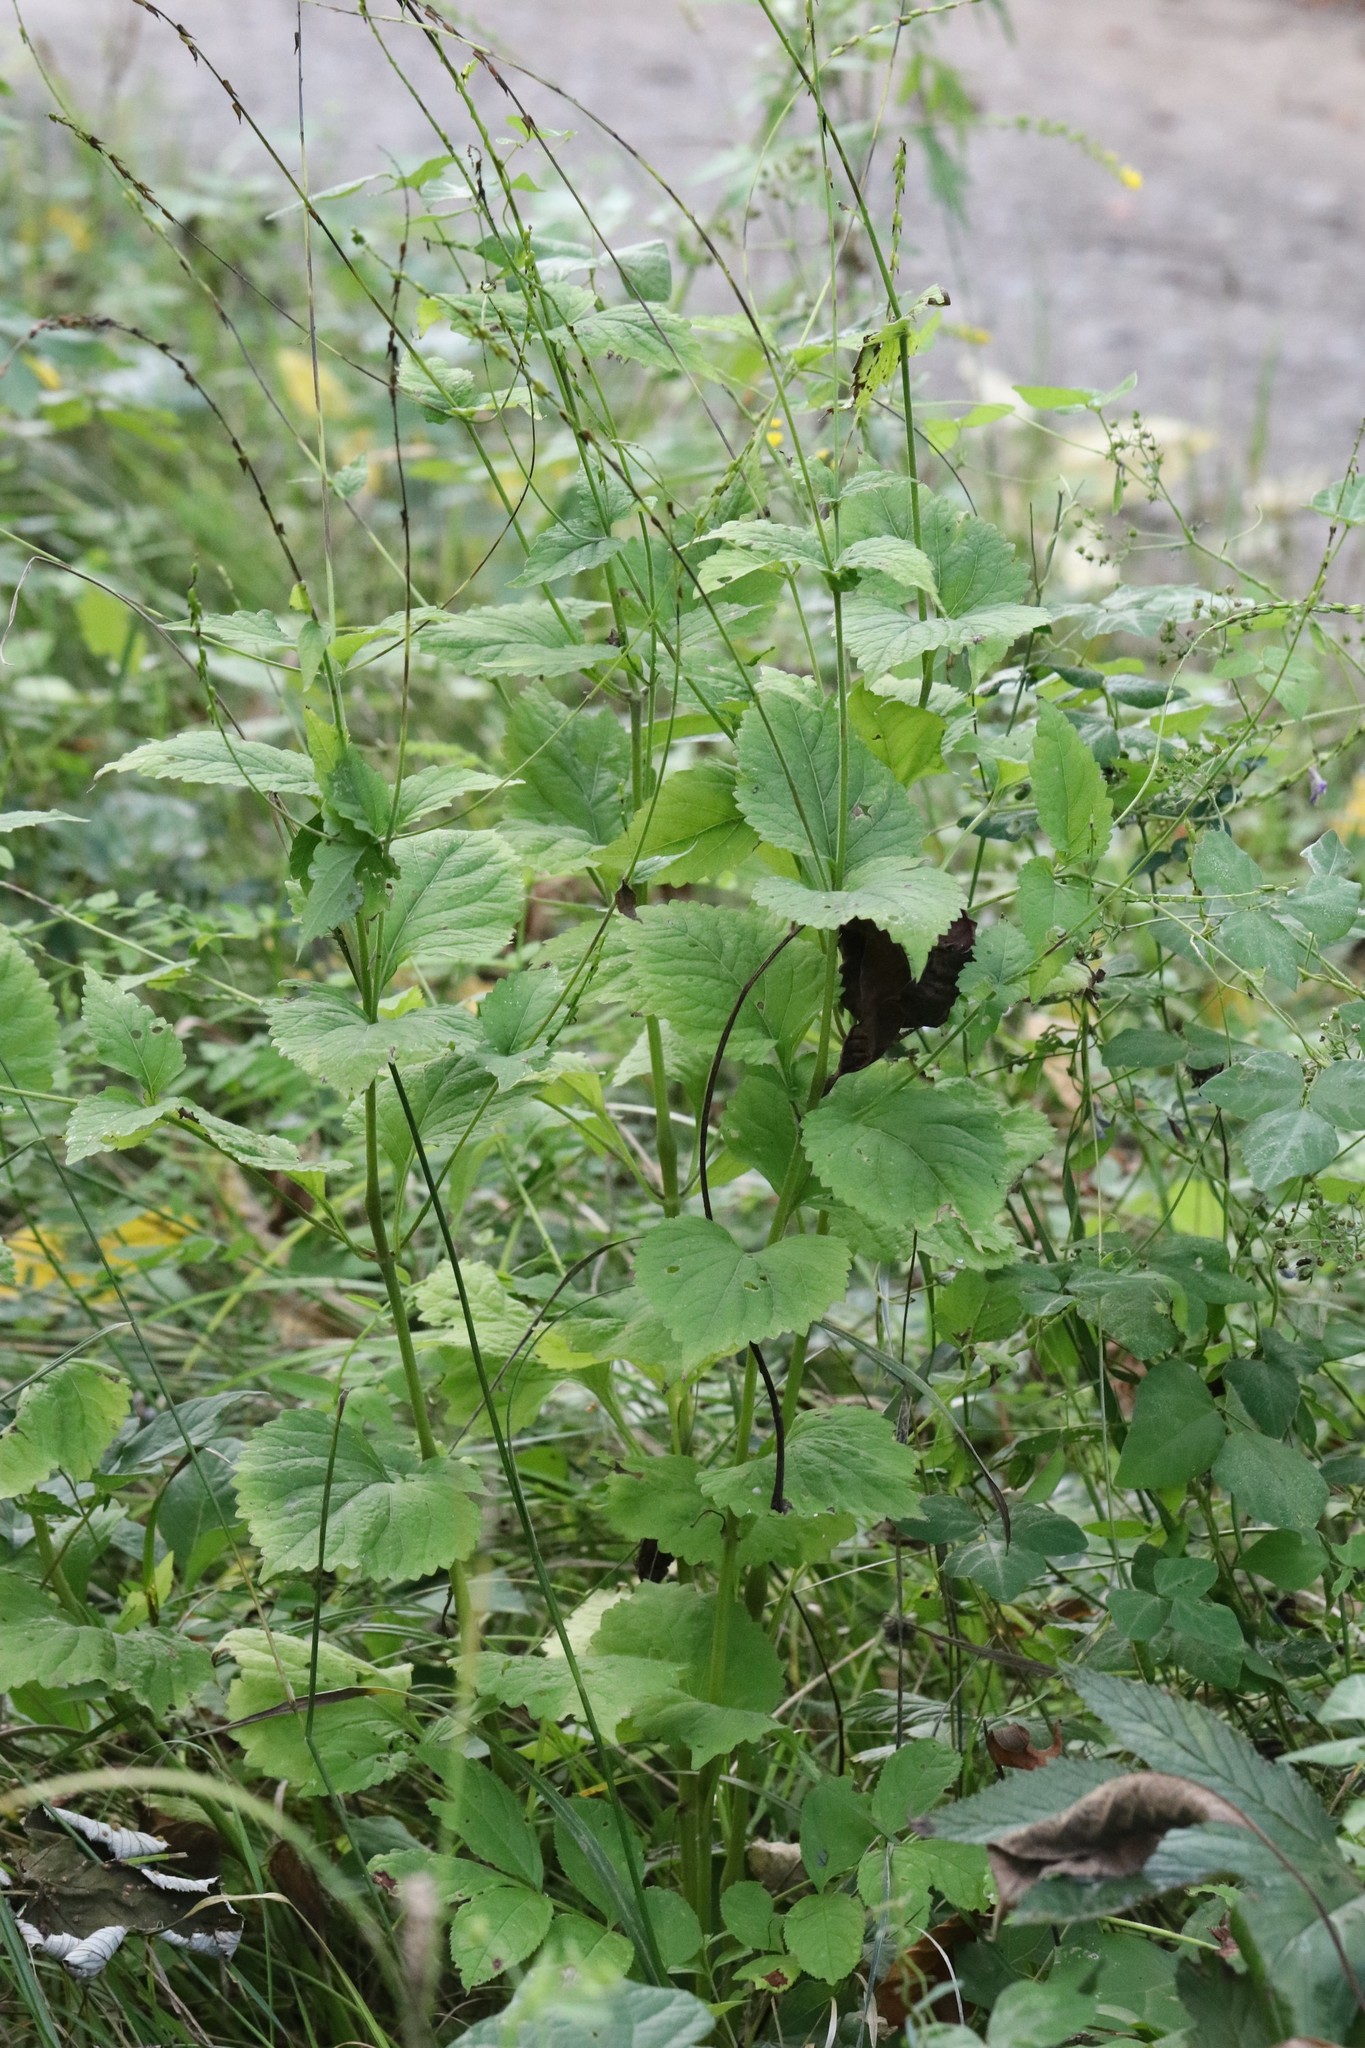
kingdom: Plantae
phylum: Tracheophyta
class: Magnoliopsida
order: Lamiales
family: Phrymaceae
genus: Phryma
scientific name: Phryma nana
